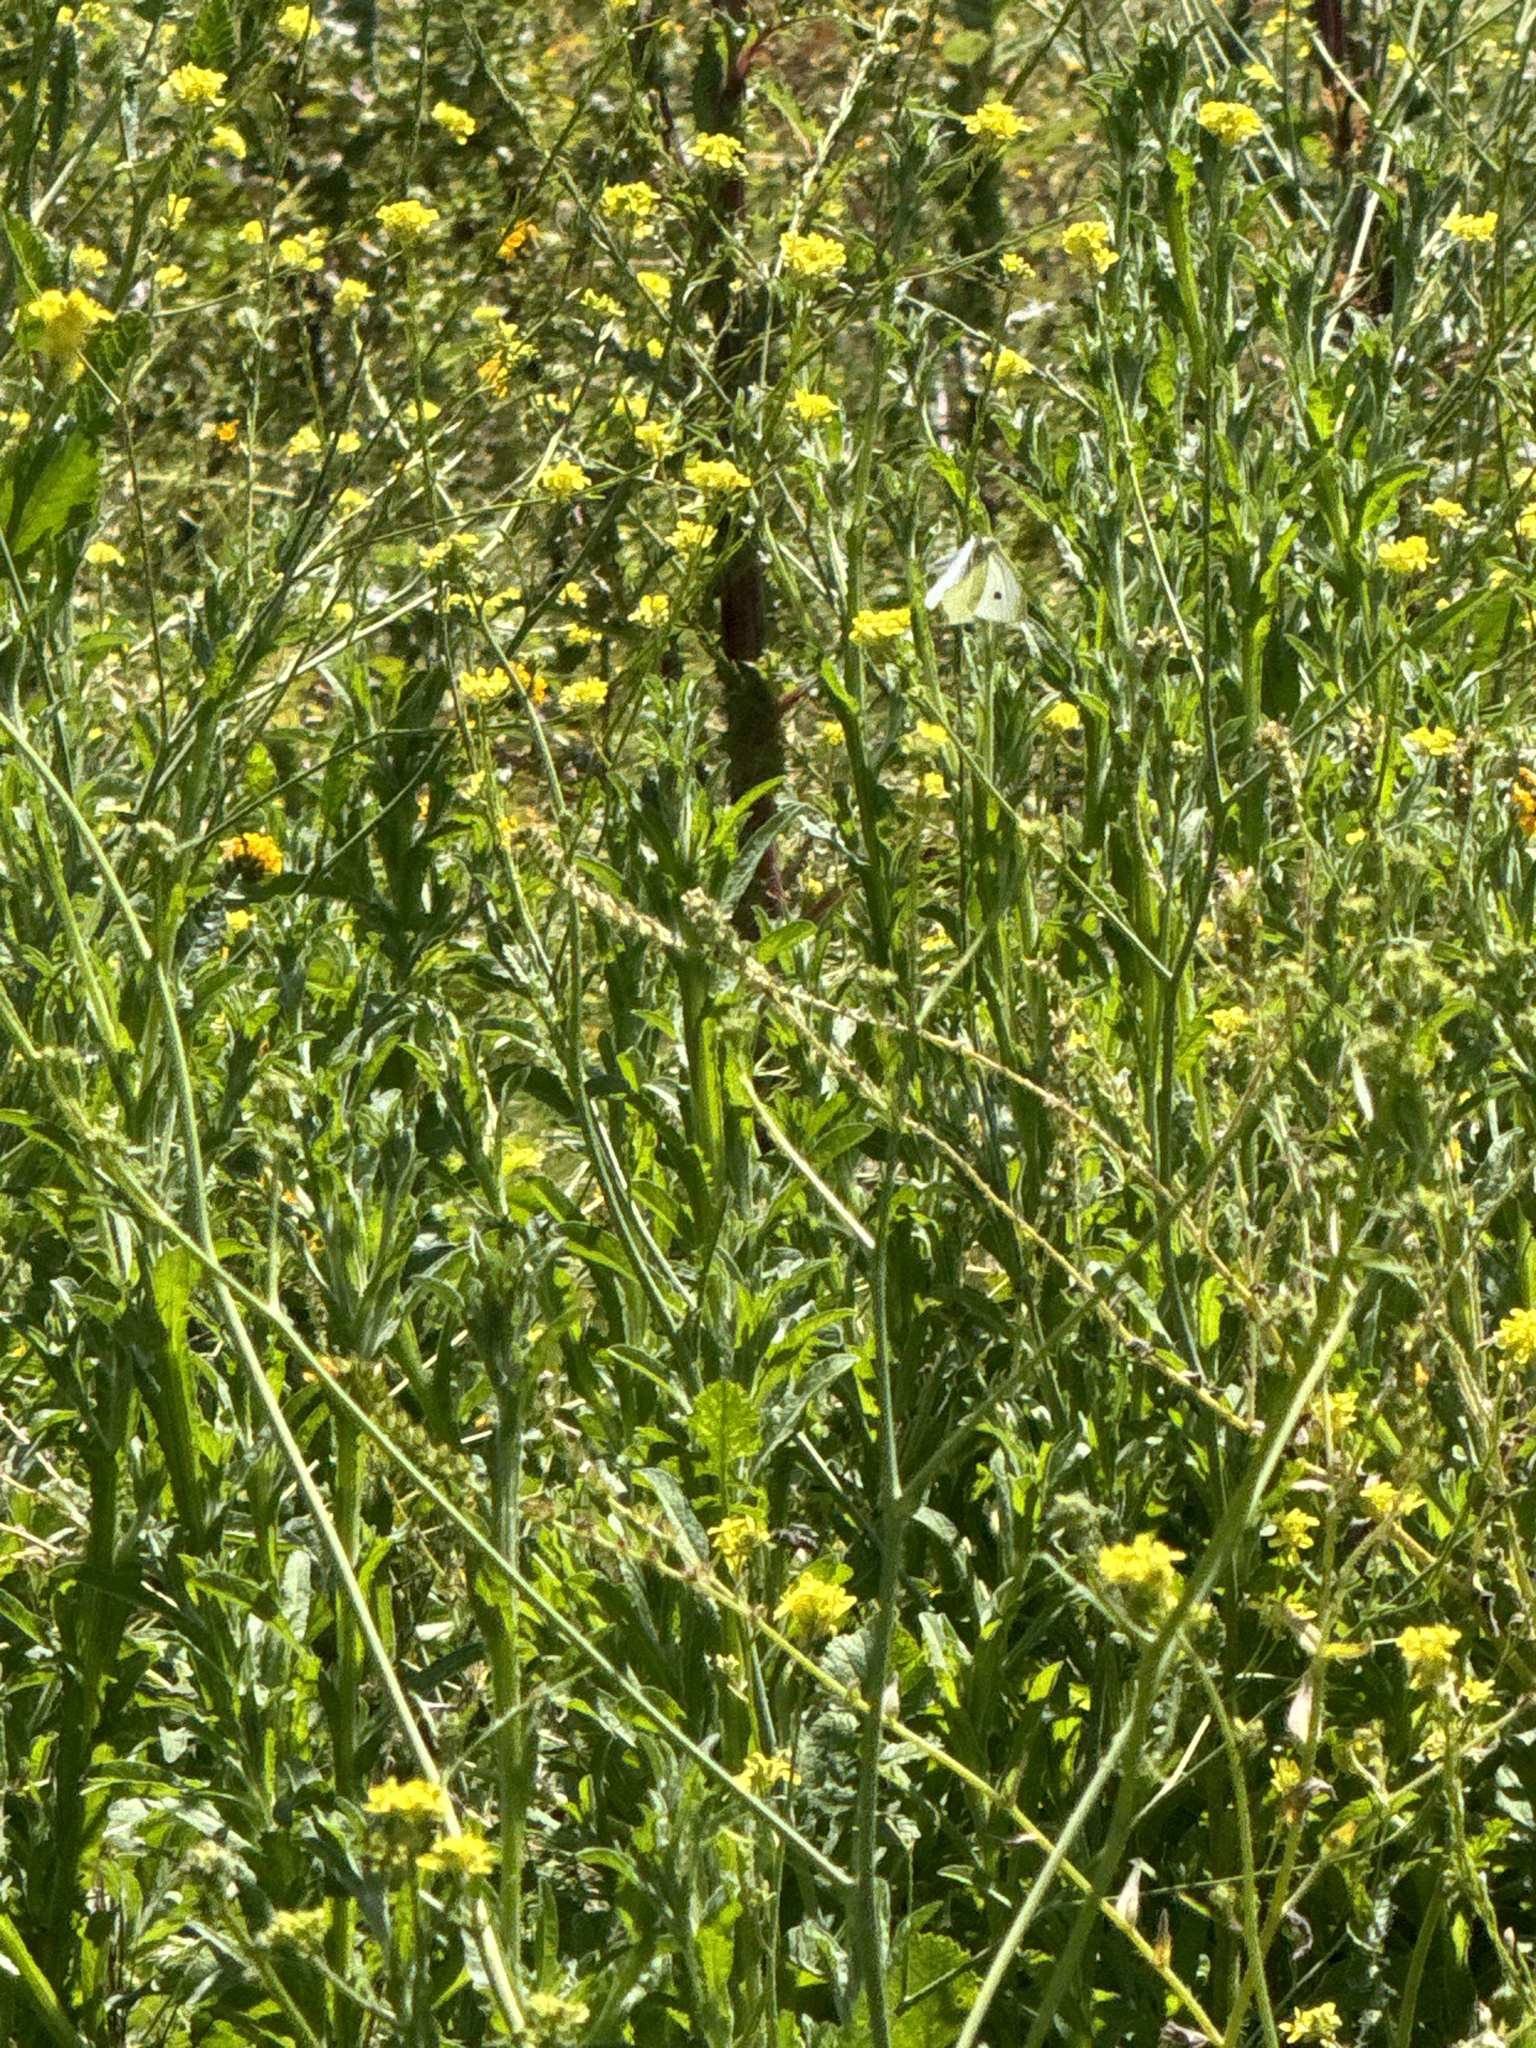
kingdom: Animalia
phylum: Arthropoda
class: Insecta
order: Lepidoptera
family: Pieridae
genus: Pieris
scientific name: Pieris rapae
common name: Small white
